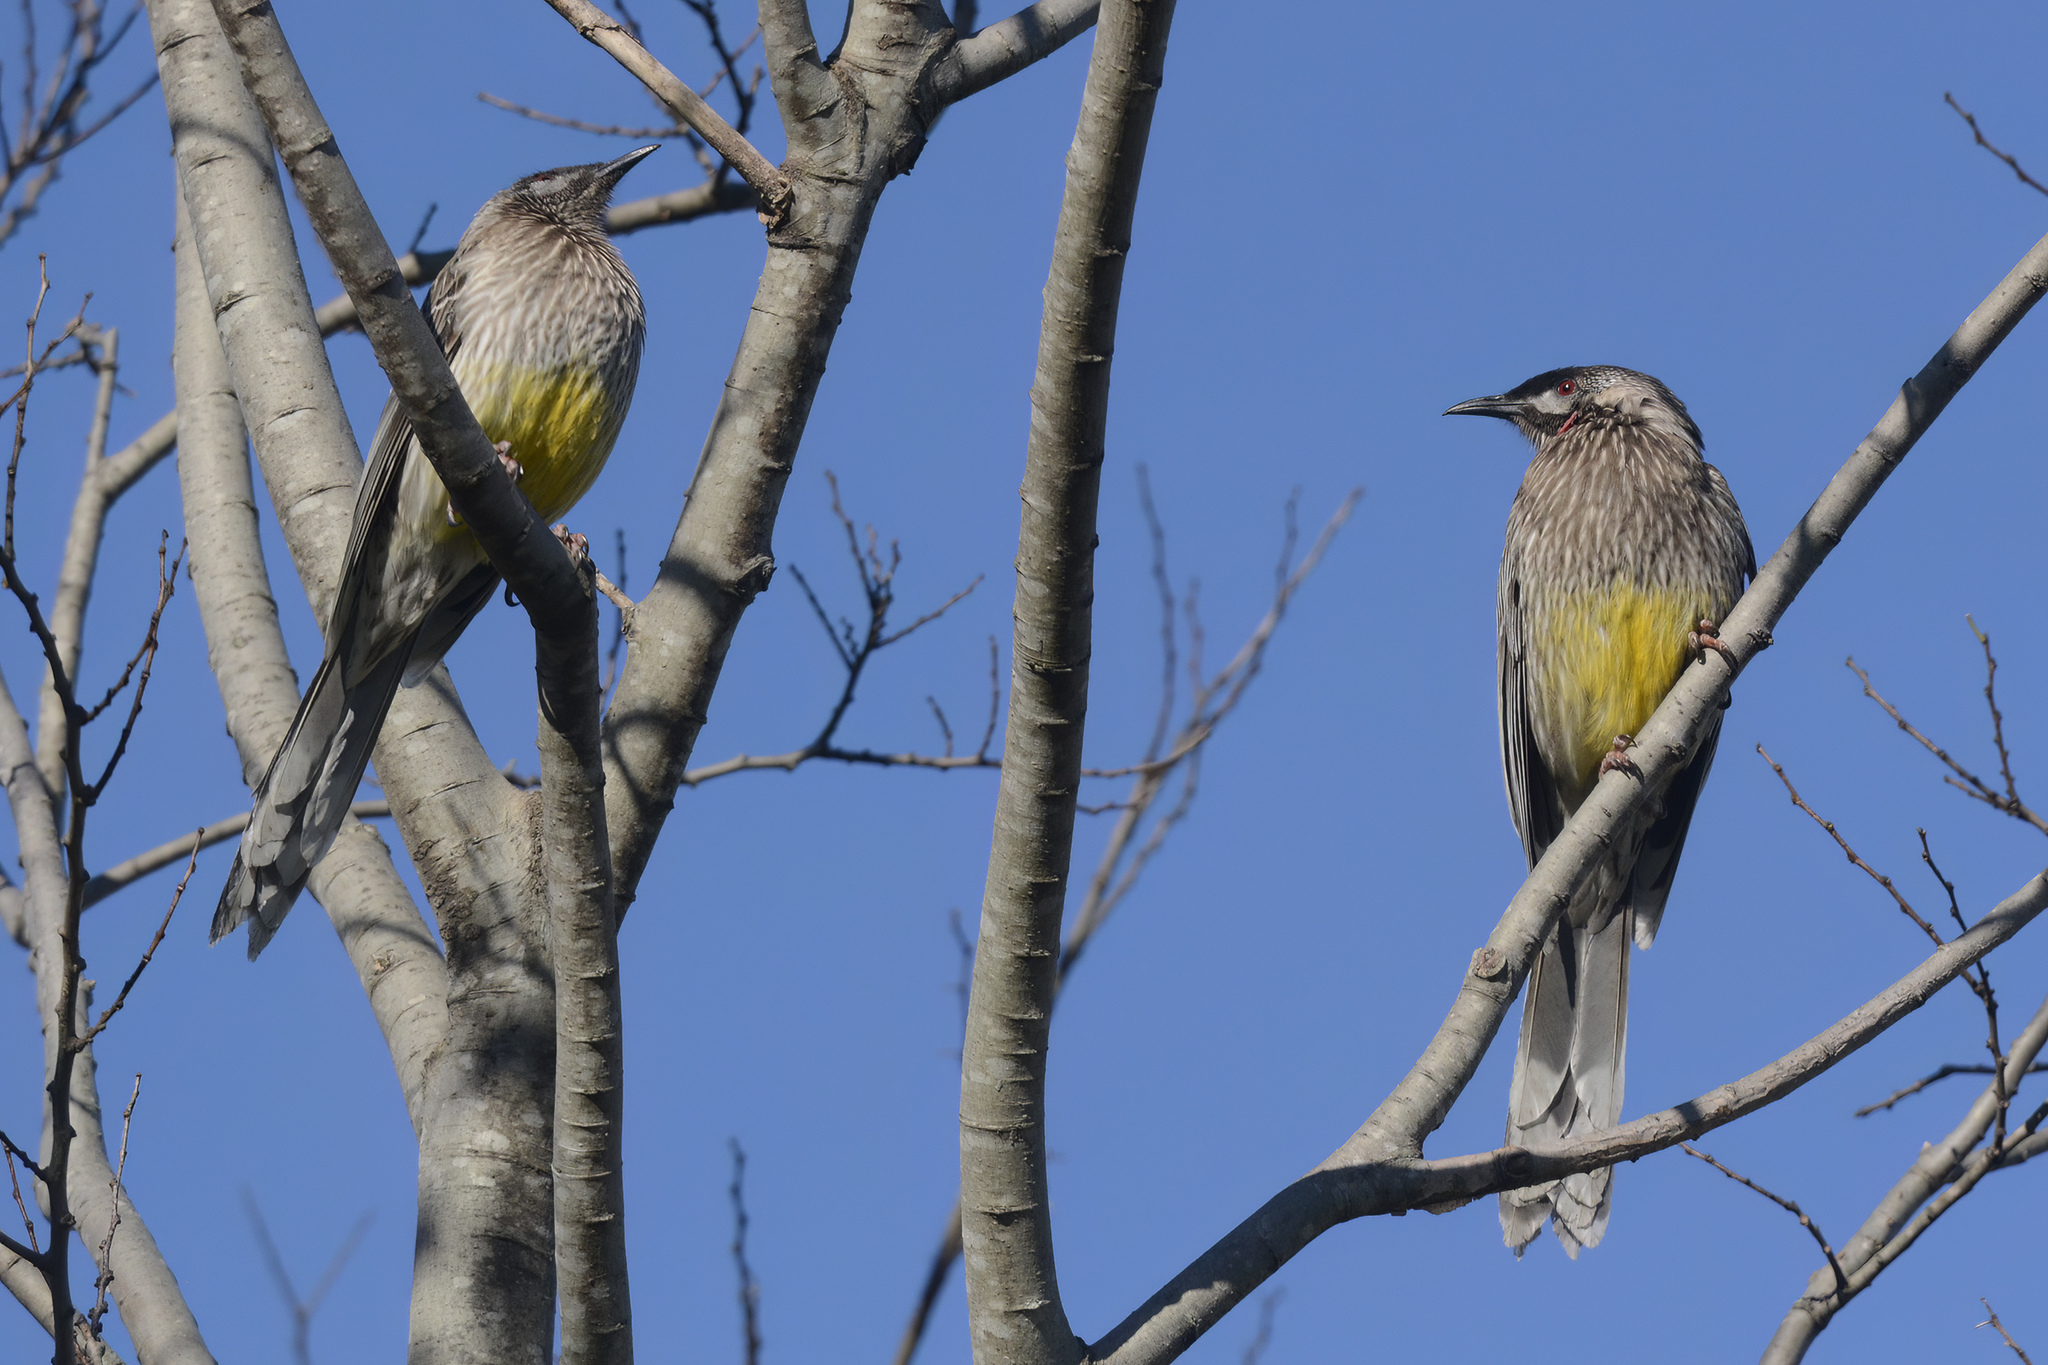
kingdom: Animalia
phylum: Chordata
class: Aves
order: Passeriformes
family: Meliphagidae
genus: Anthochaera
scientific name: Anthochaera carunculata
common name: Red wattlebird
